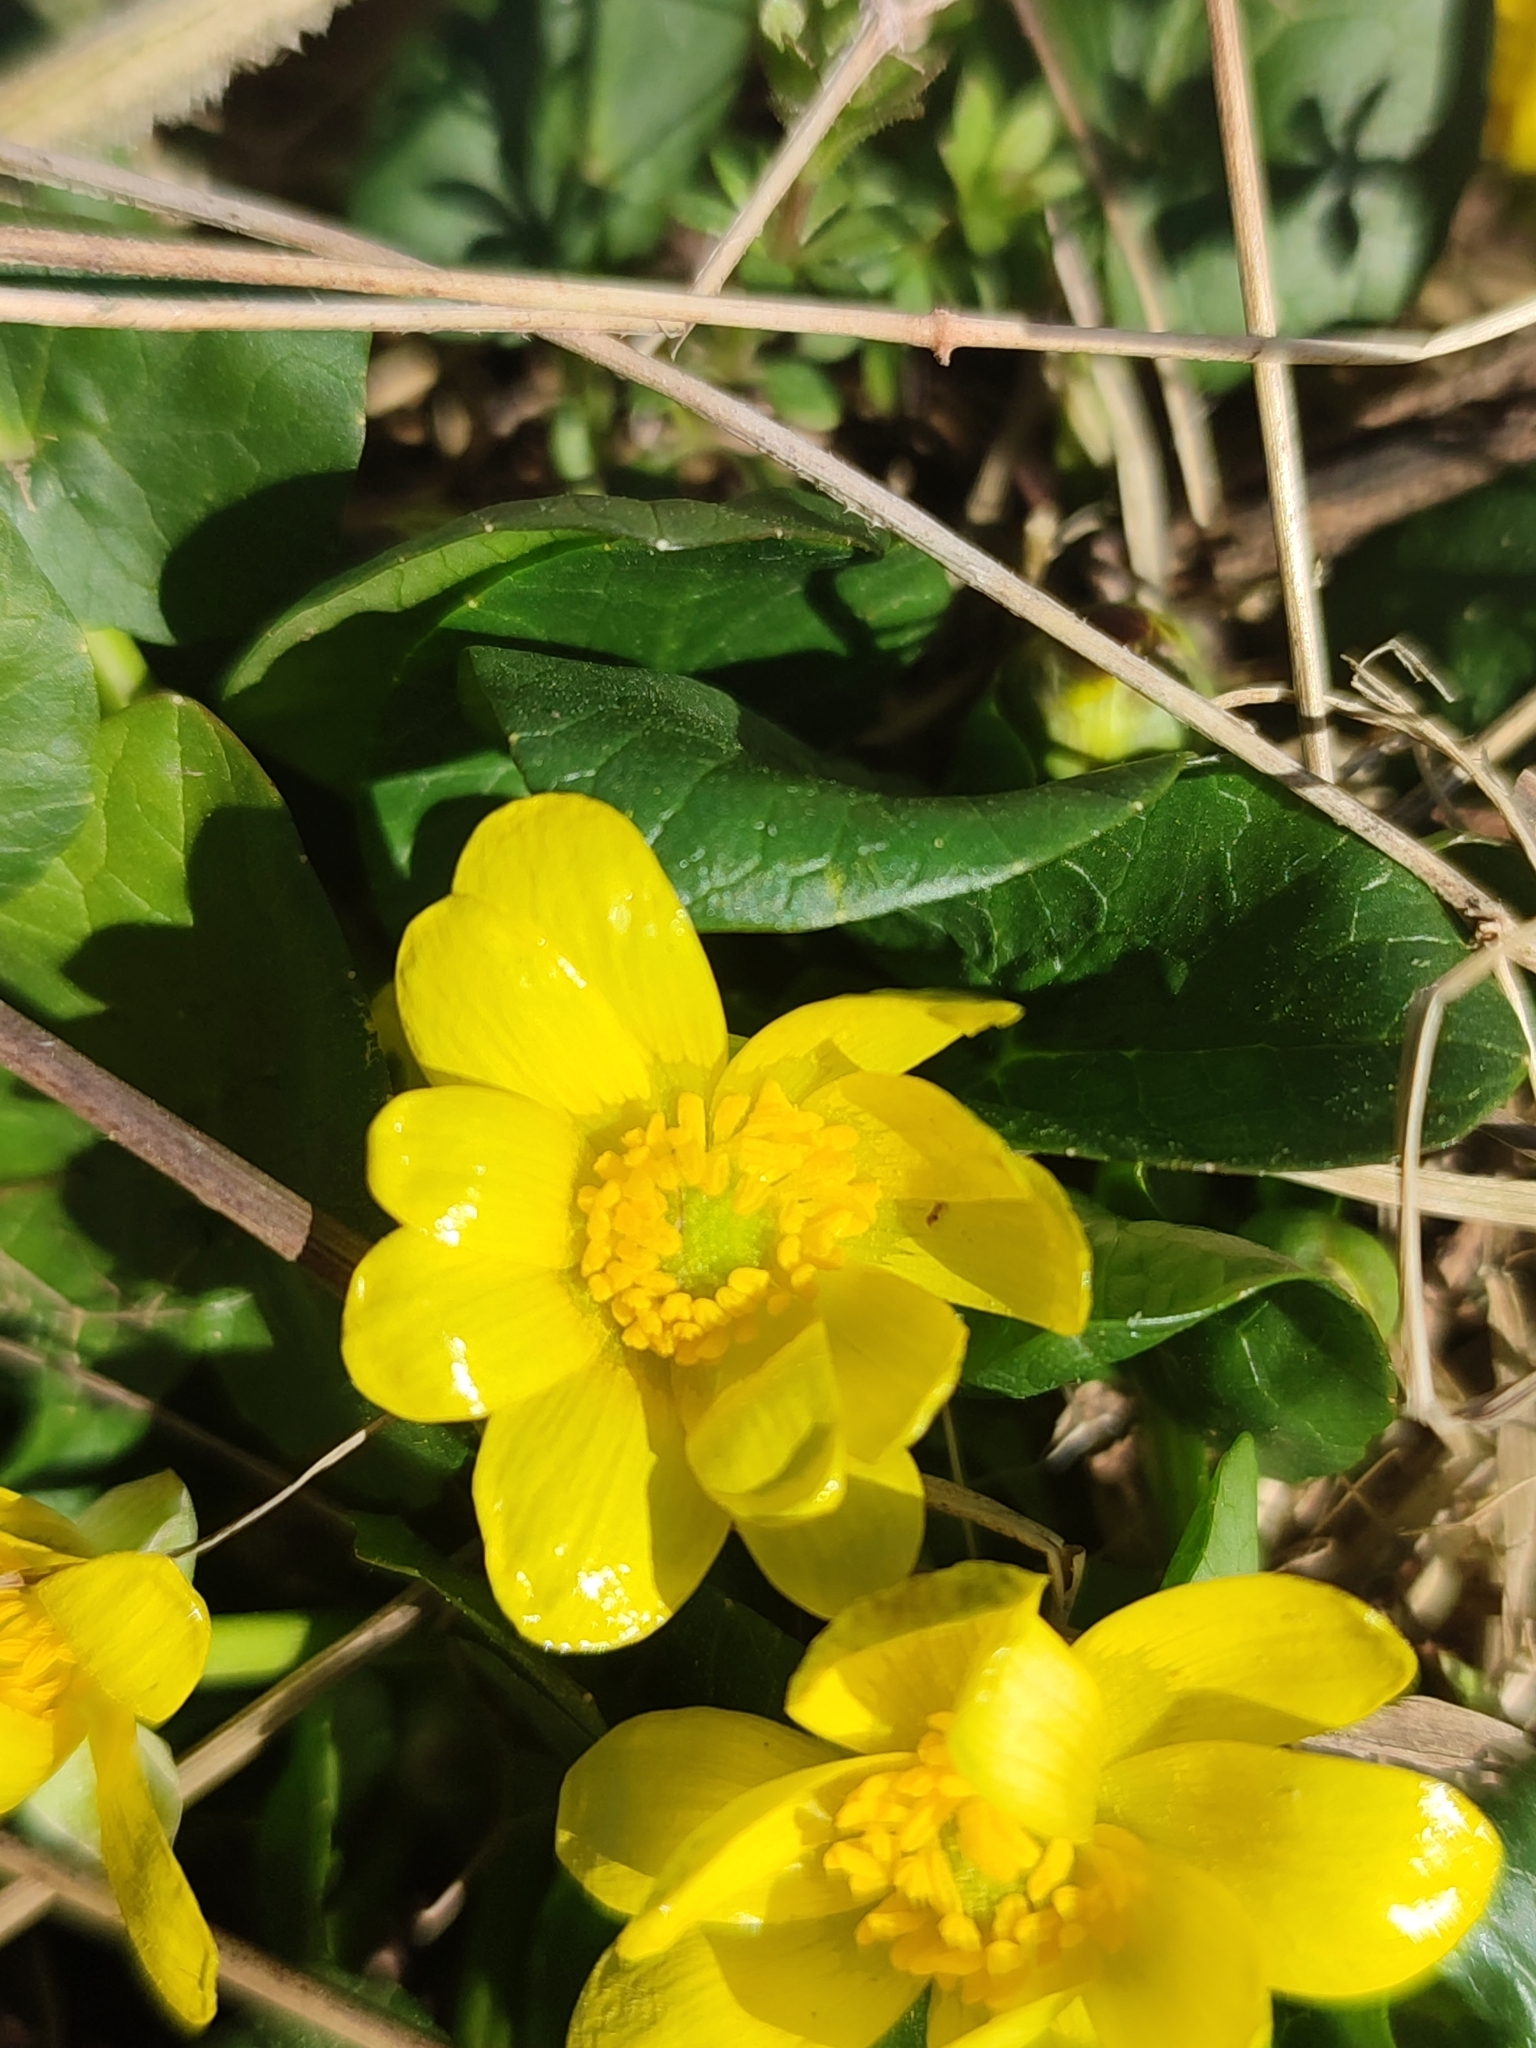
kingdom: Plantae
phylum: Tracheophyta
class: Magnoliopsida
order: Ranunculales
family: Ranunculaceae
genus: Ficaria
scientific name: Ficaria verna
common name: Lesser celandine
